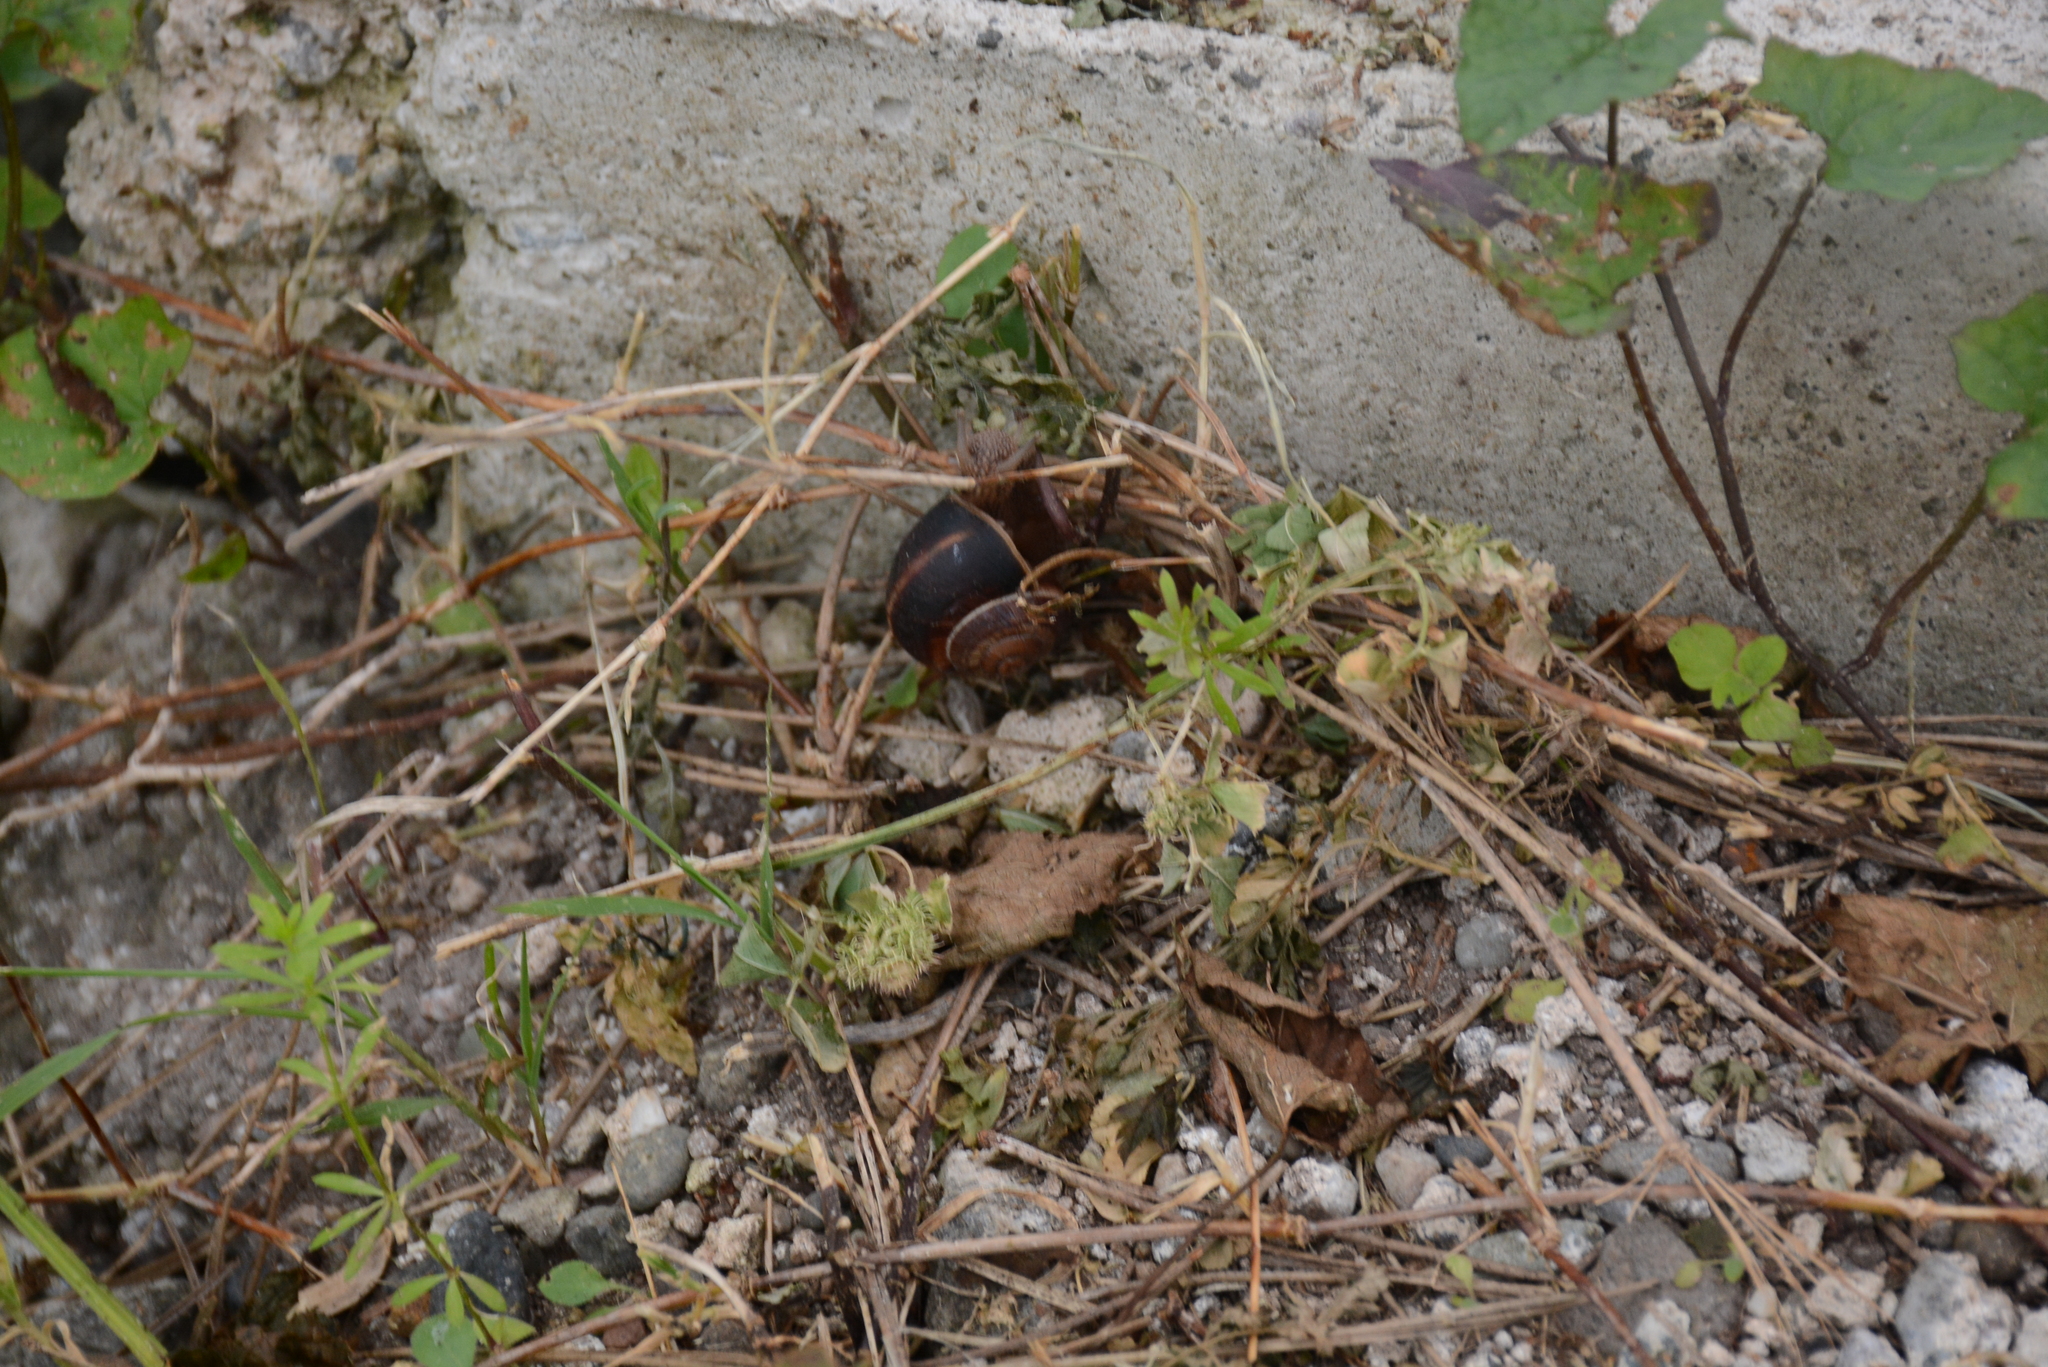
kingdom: Animalia
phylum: Mollusca
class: Gastropoda
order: Stylommatophora
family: Helicidae
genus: Helix
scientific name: Helix lucorum
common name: Turkish snail
